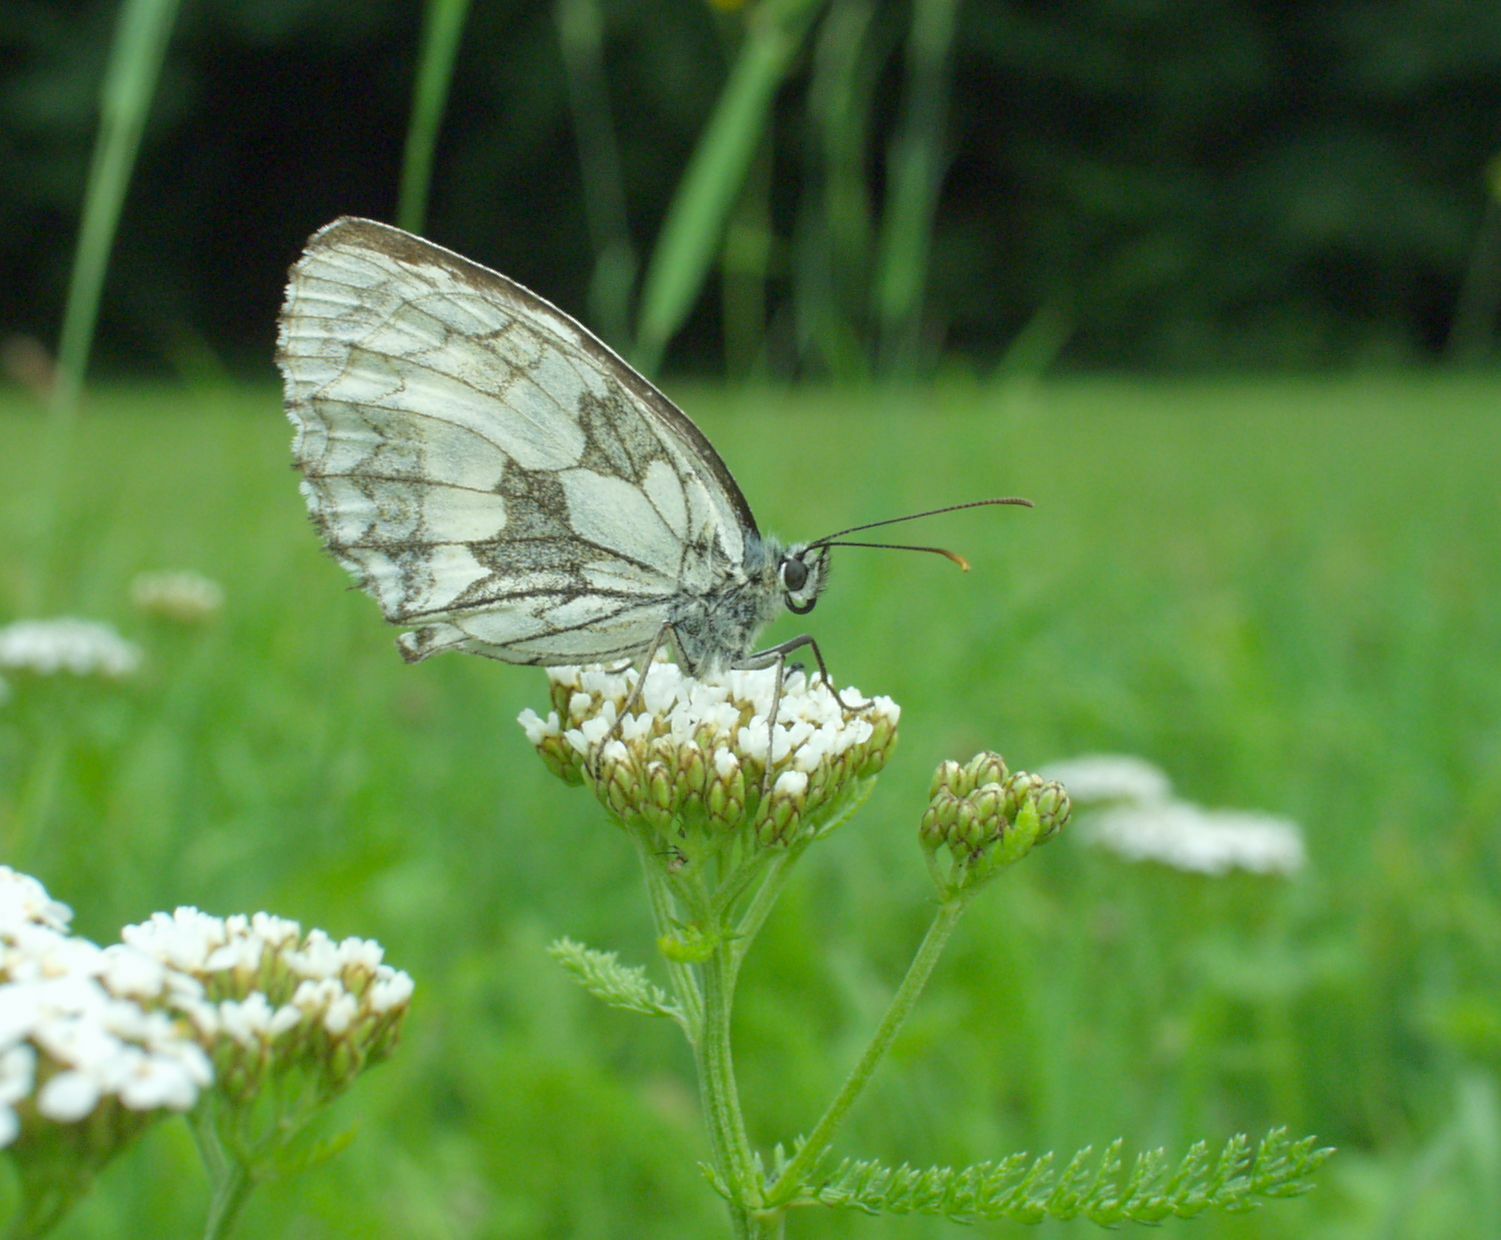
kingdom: Animalia
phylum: Arthropoda
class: Insecta
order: Lepidoptera
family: Nymphalidae
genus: Melanargia
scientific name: Melanargia galathea
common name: Marbled white
